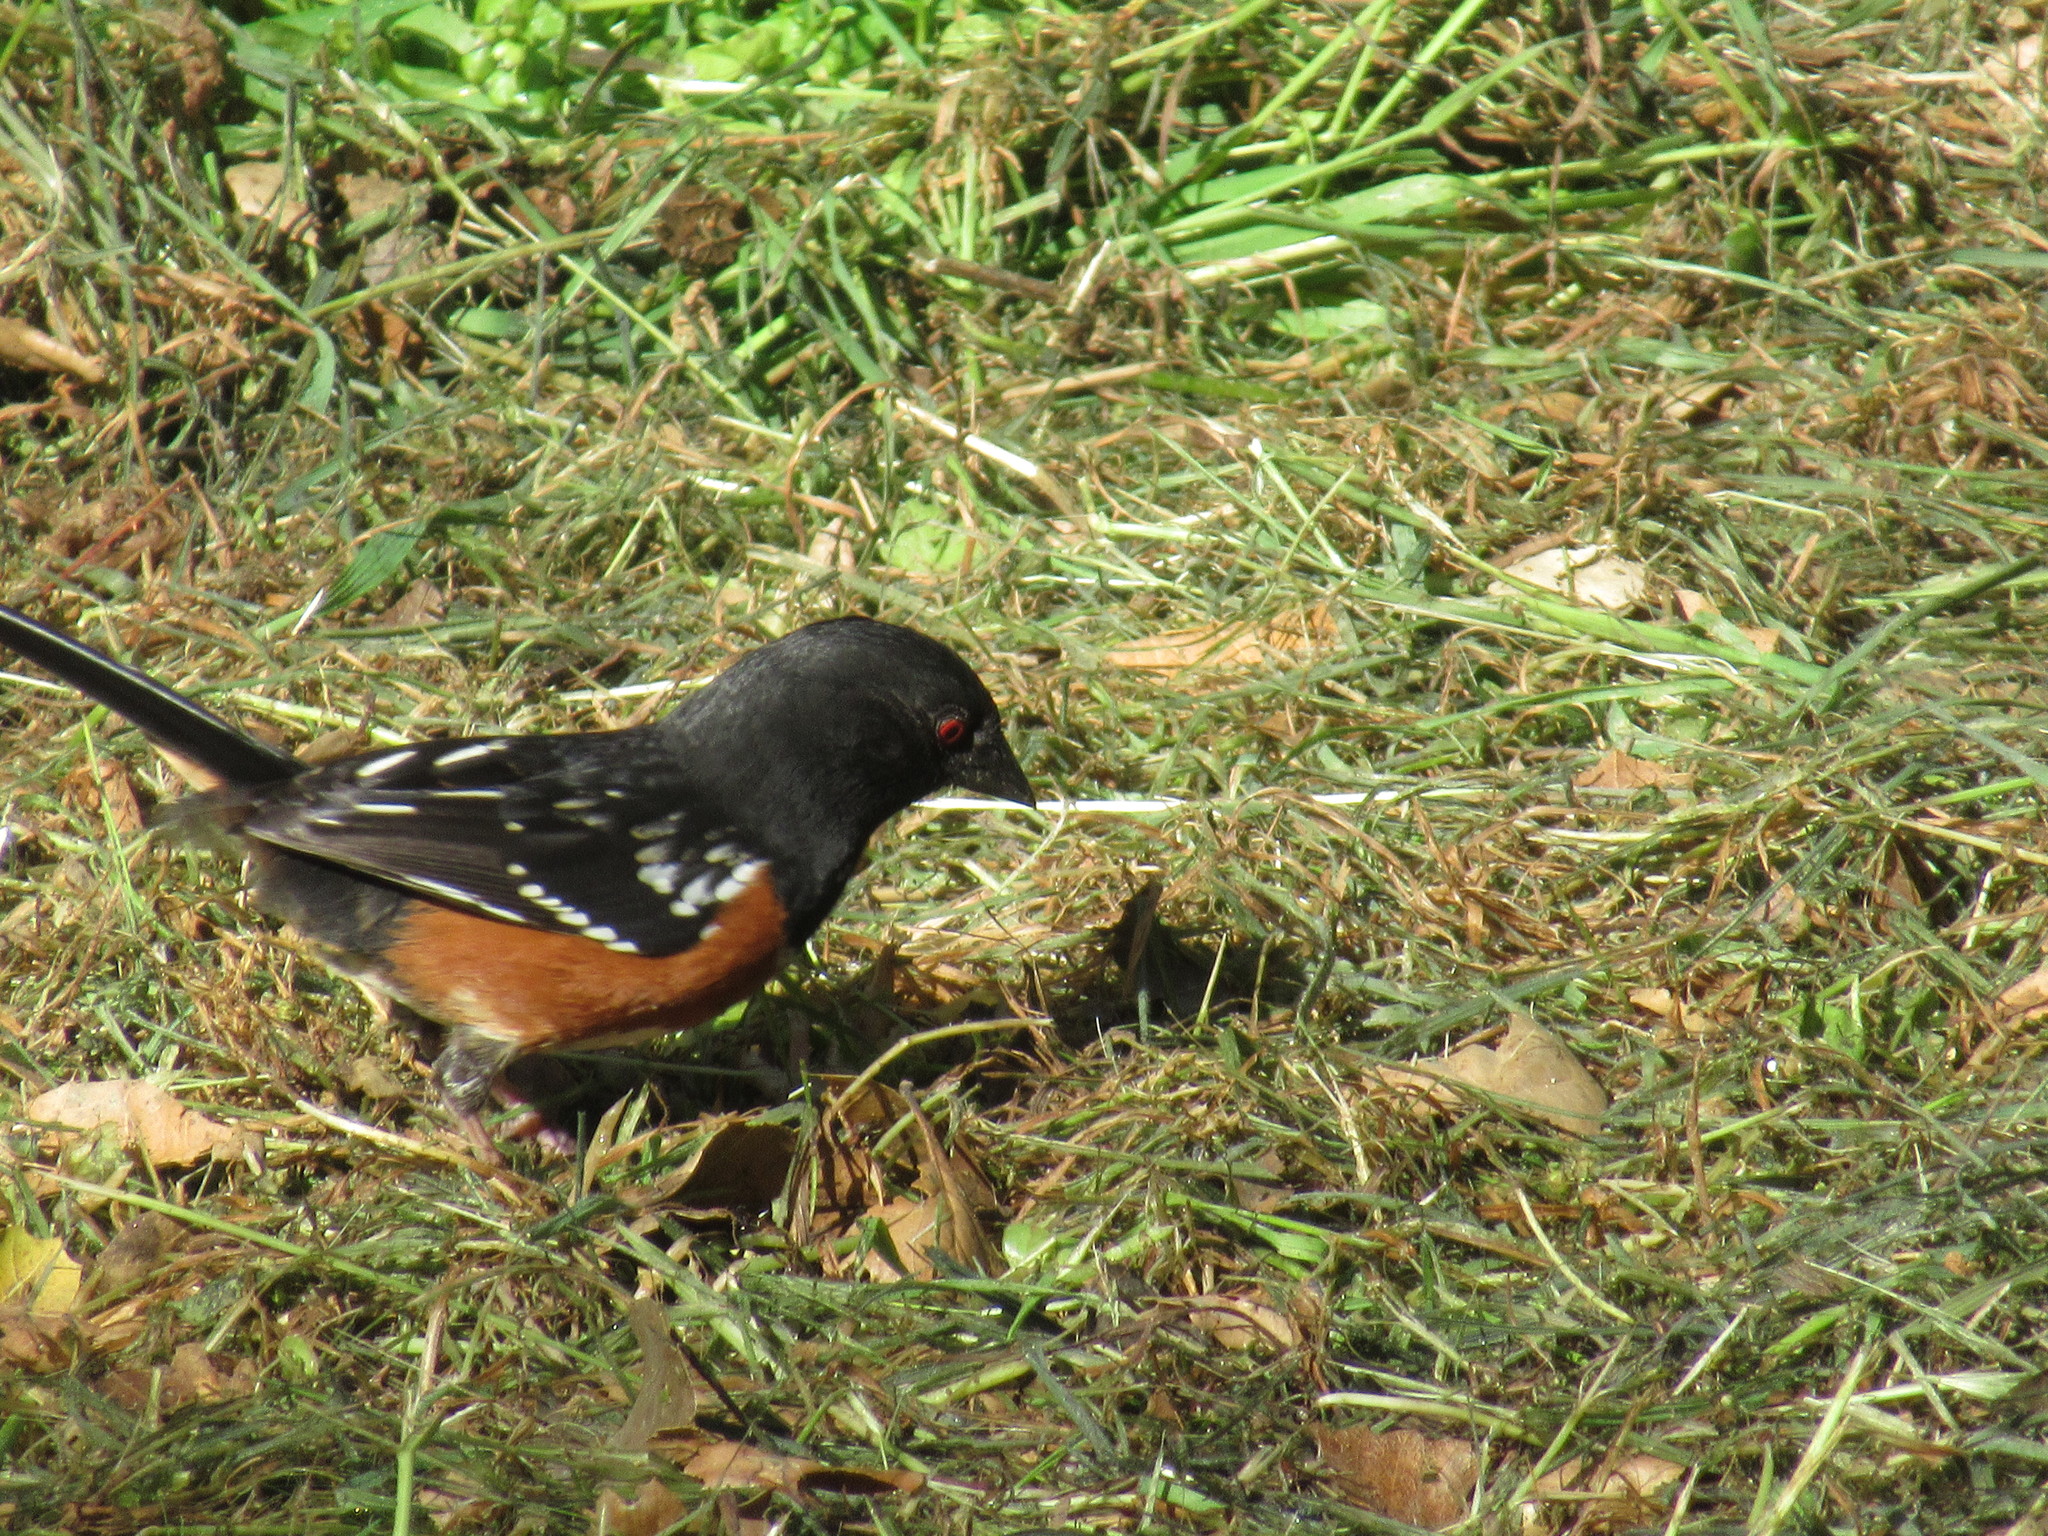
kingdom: Animalia
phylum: Chordata
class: Aves
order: Passeriformes
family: Passerellidae
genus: Pipilo
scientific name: Pipilo maculatus
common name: Spotted towhee
